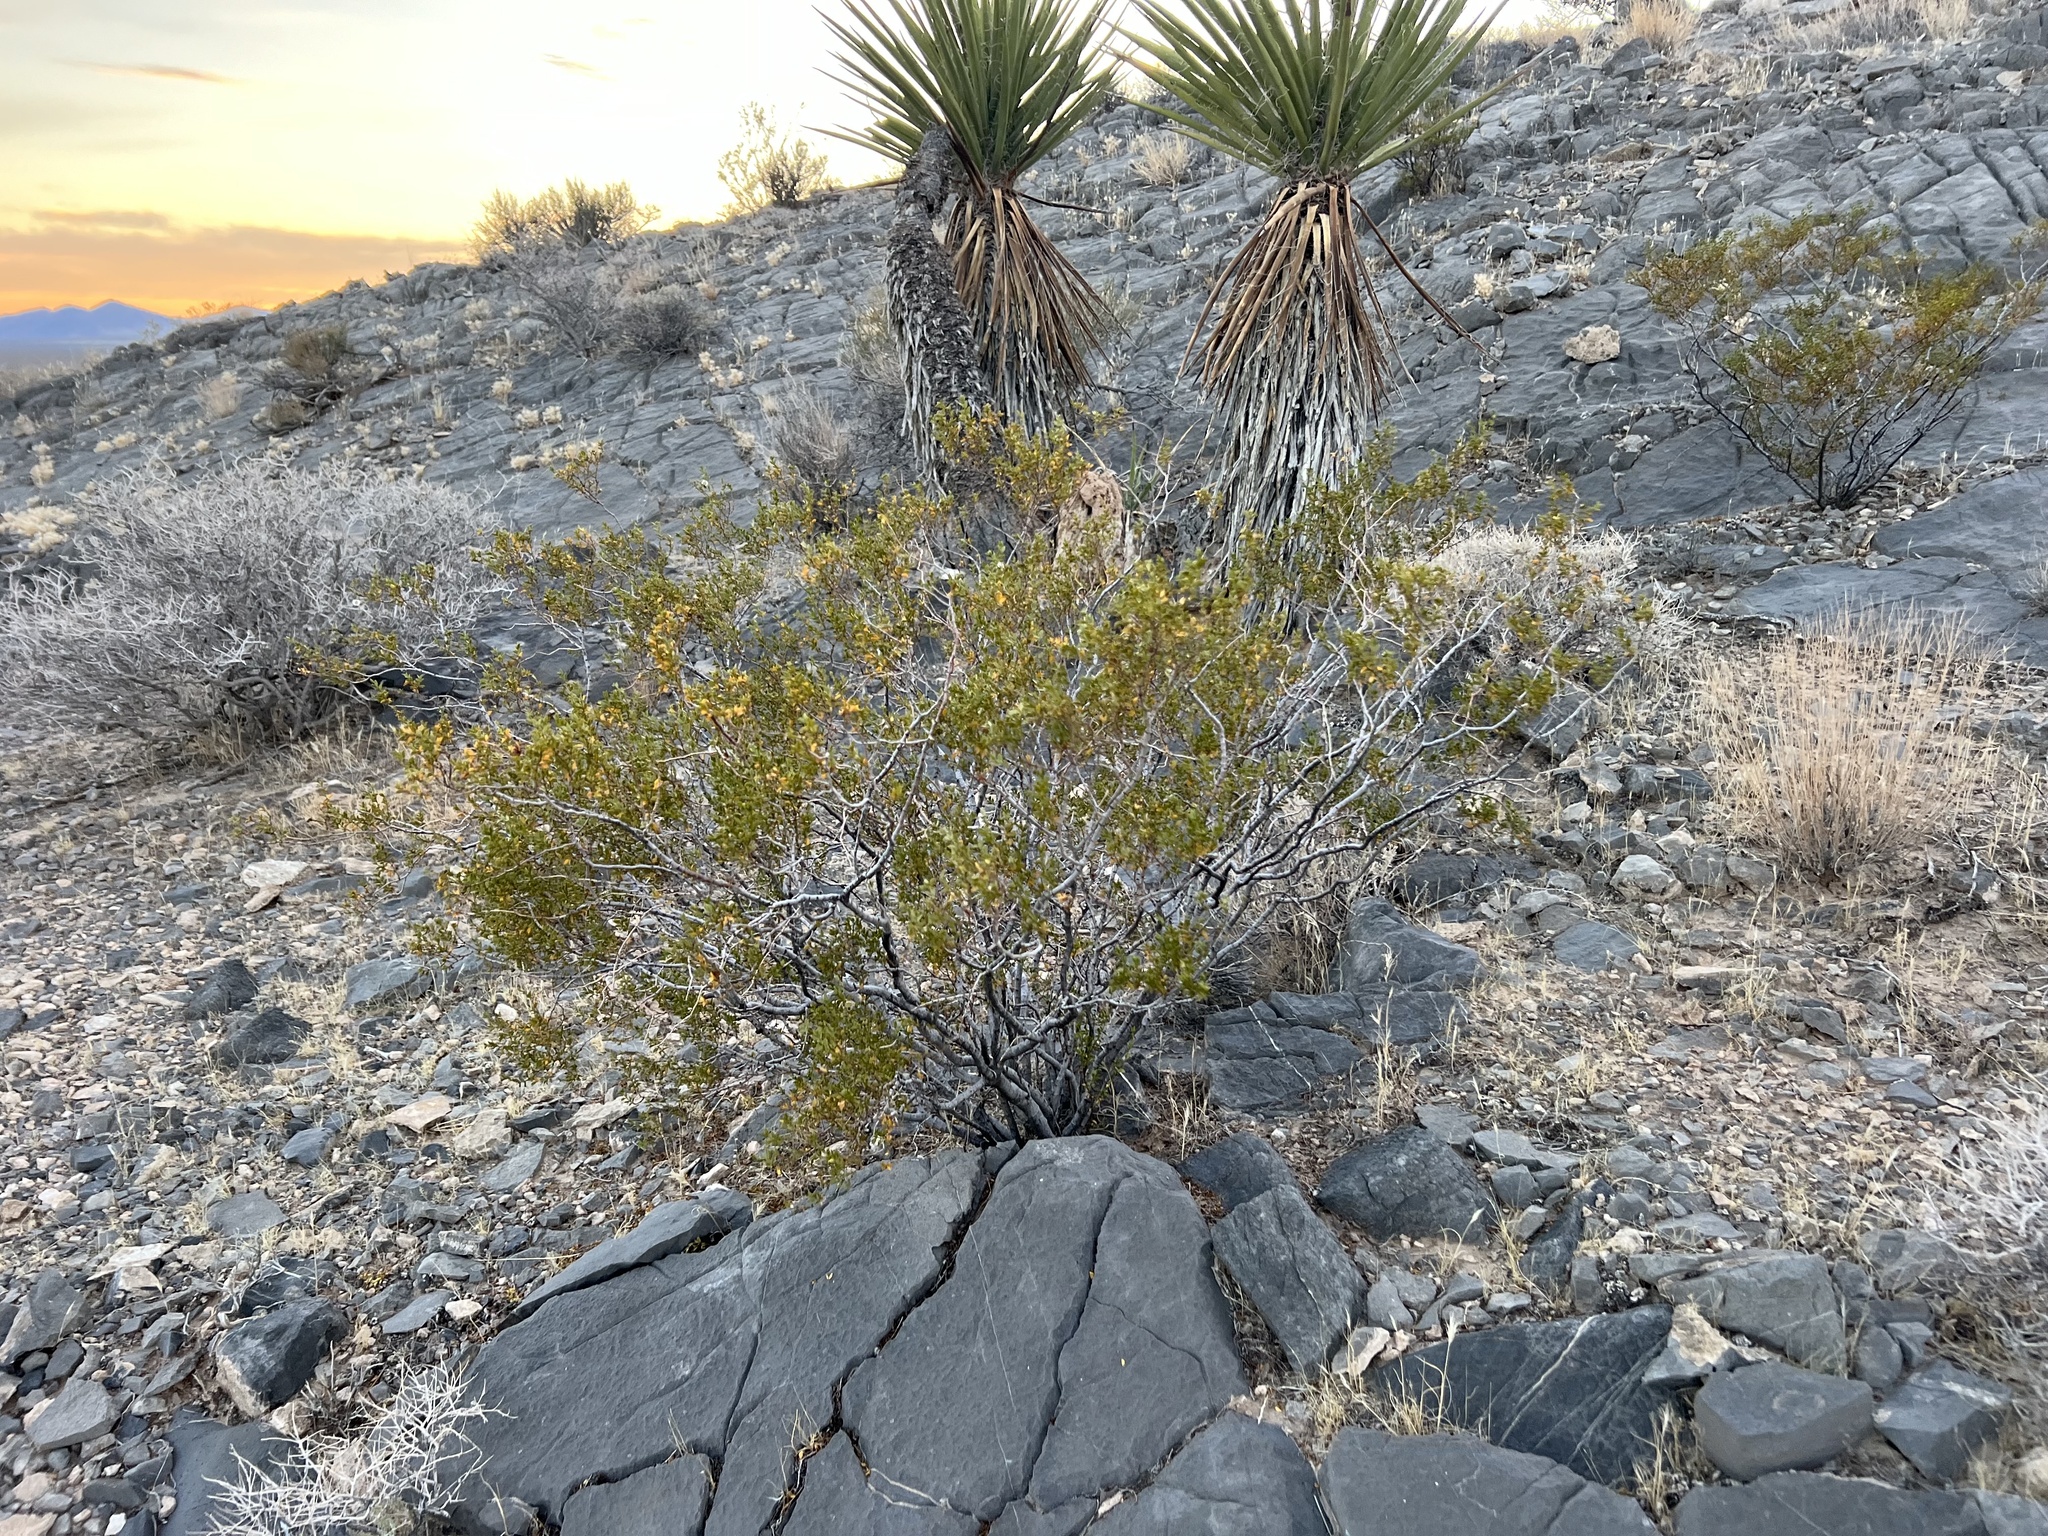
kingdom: Plantae
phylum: Tracheophyta
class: Magnoliopsida
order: Zygophyllales
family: Zygophyllaceae
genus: Larrea
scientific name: Larrea tridentata
